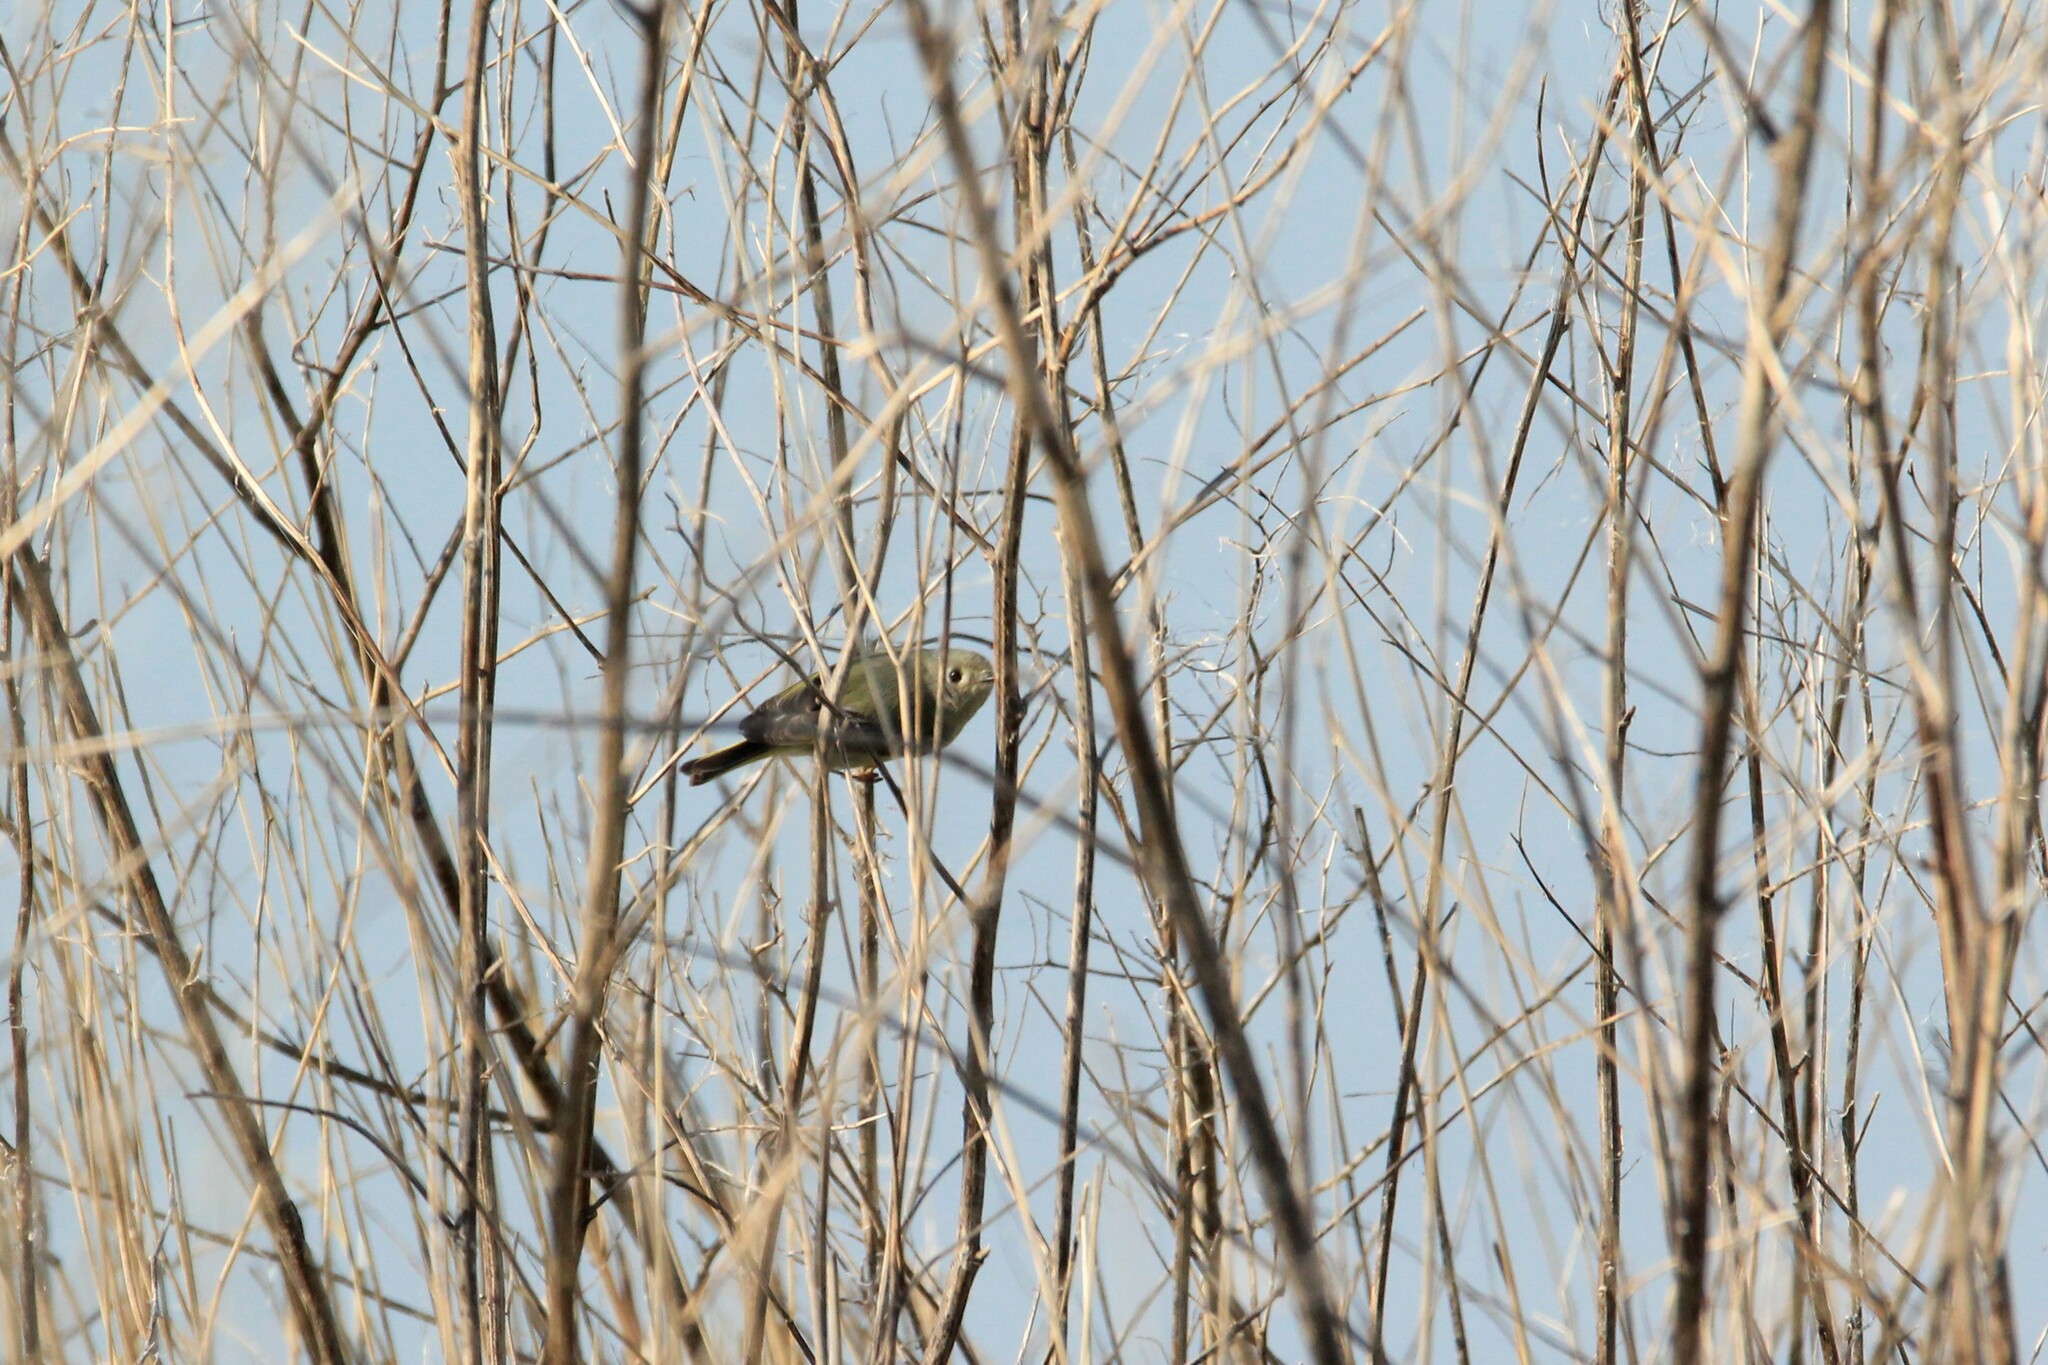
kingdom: Animalia
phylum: Chordata
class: Aves
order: Passeriformes
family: Regulidae
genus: Regulus
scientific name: Regulus calendula
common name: Ruby-crowned kinglet
